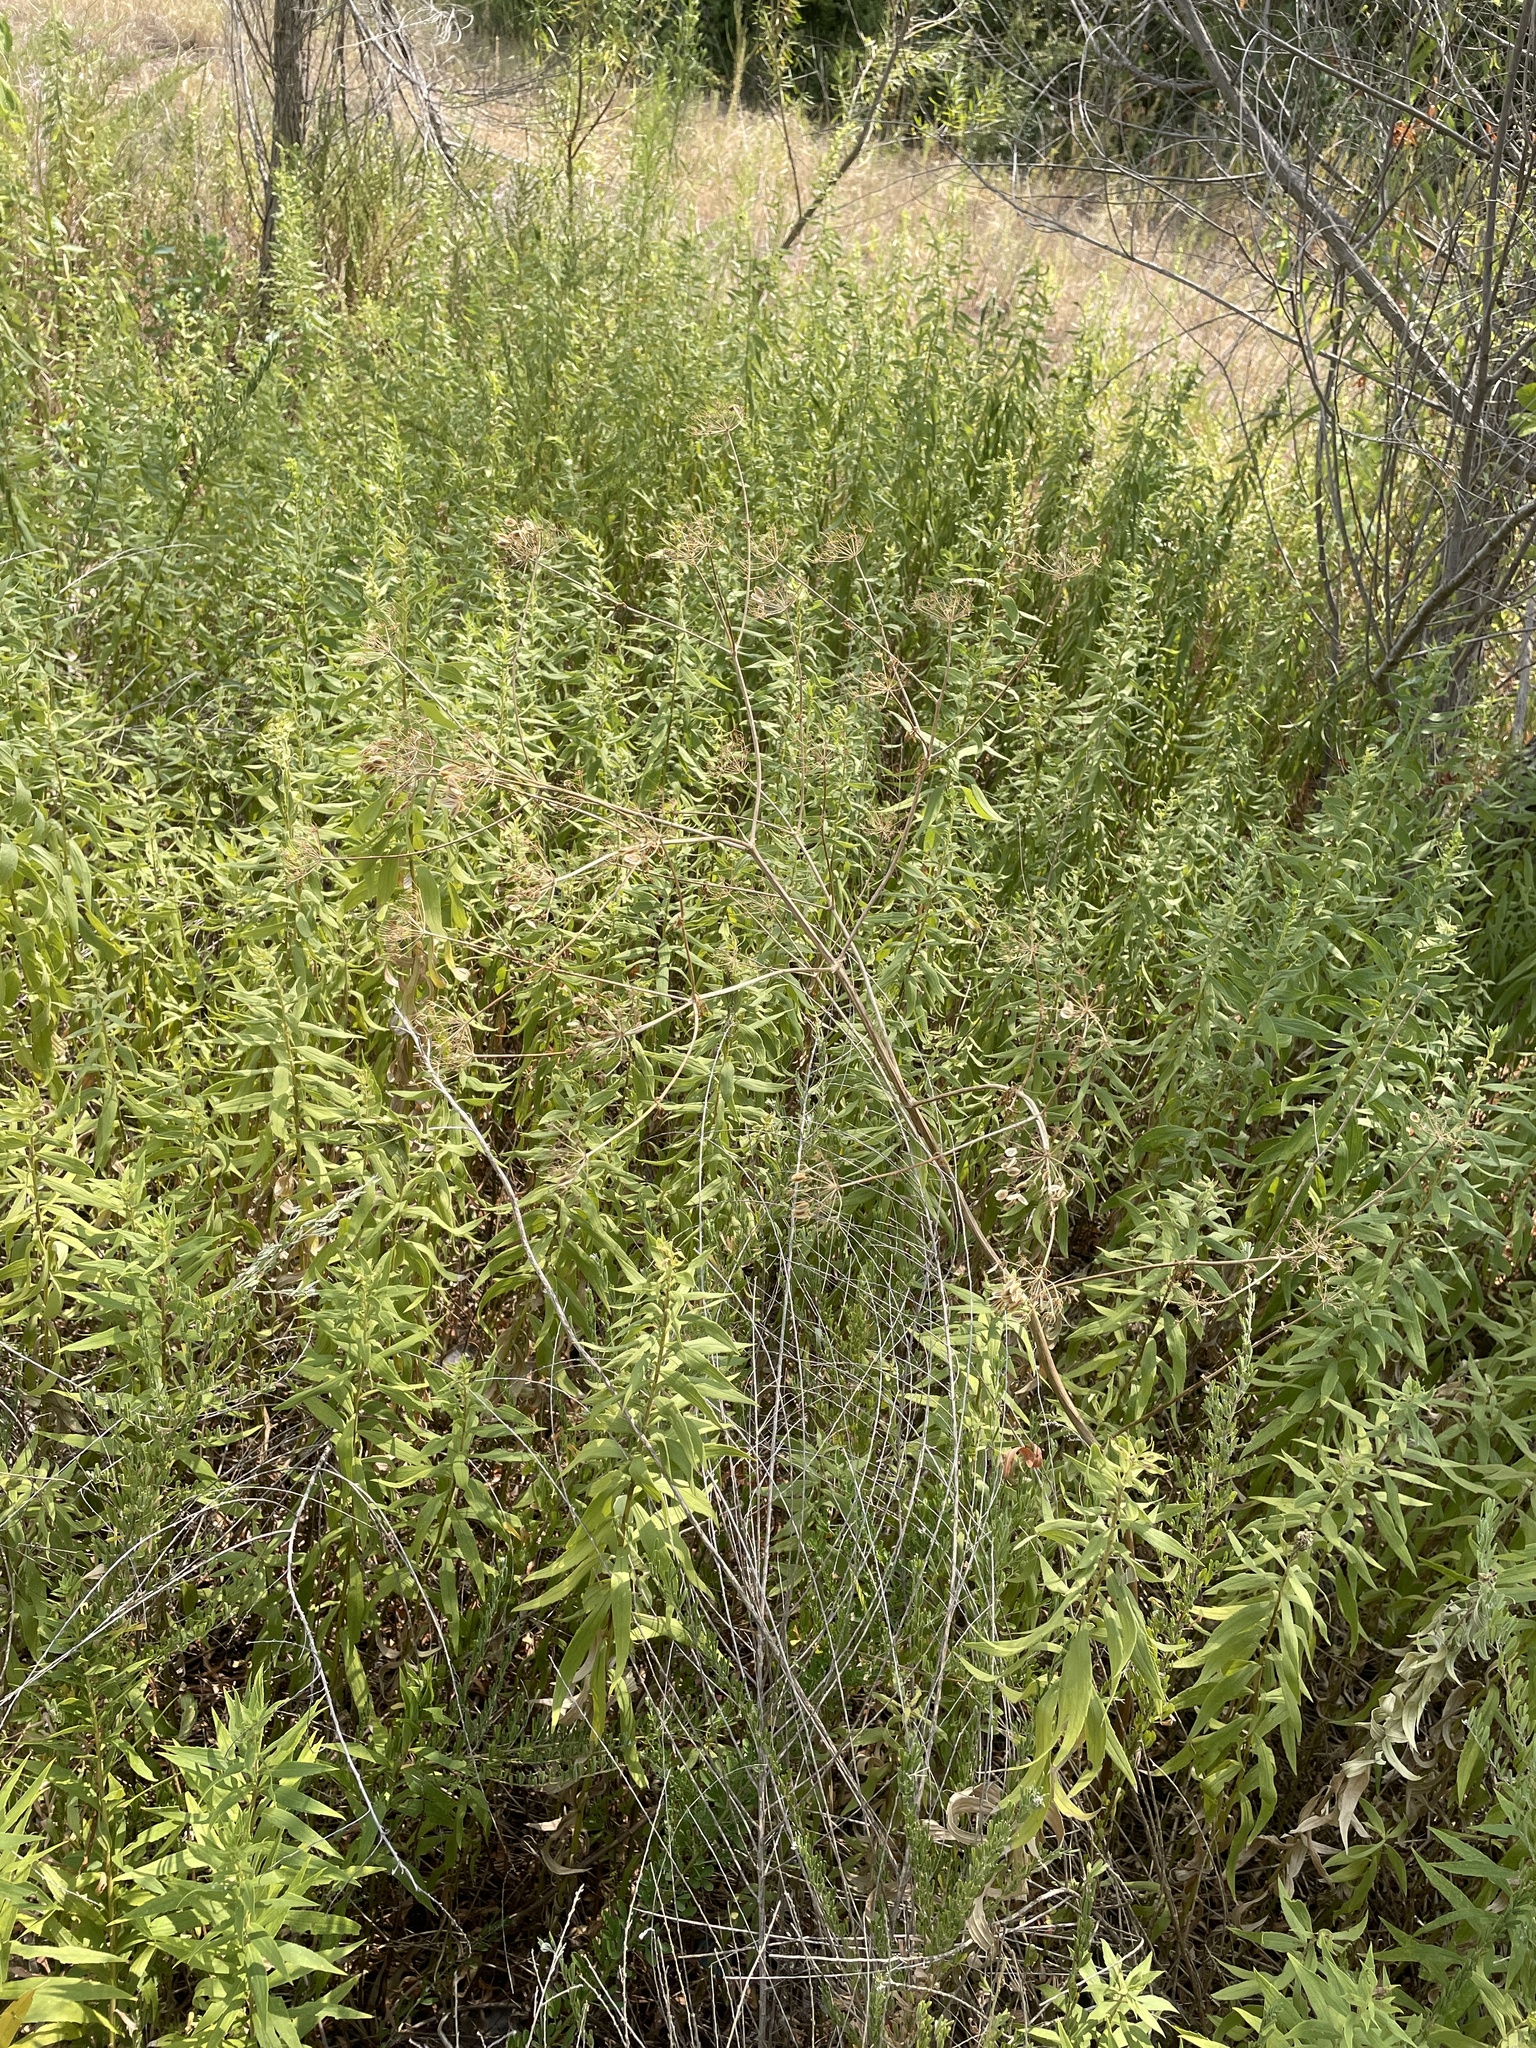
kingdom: Plantae
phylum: Tracheophyta
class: Magnoliopsida
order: Apiales
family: Apiaceae
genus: Polytaenia
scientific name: Polytaenia texana
